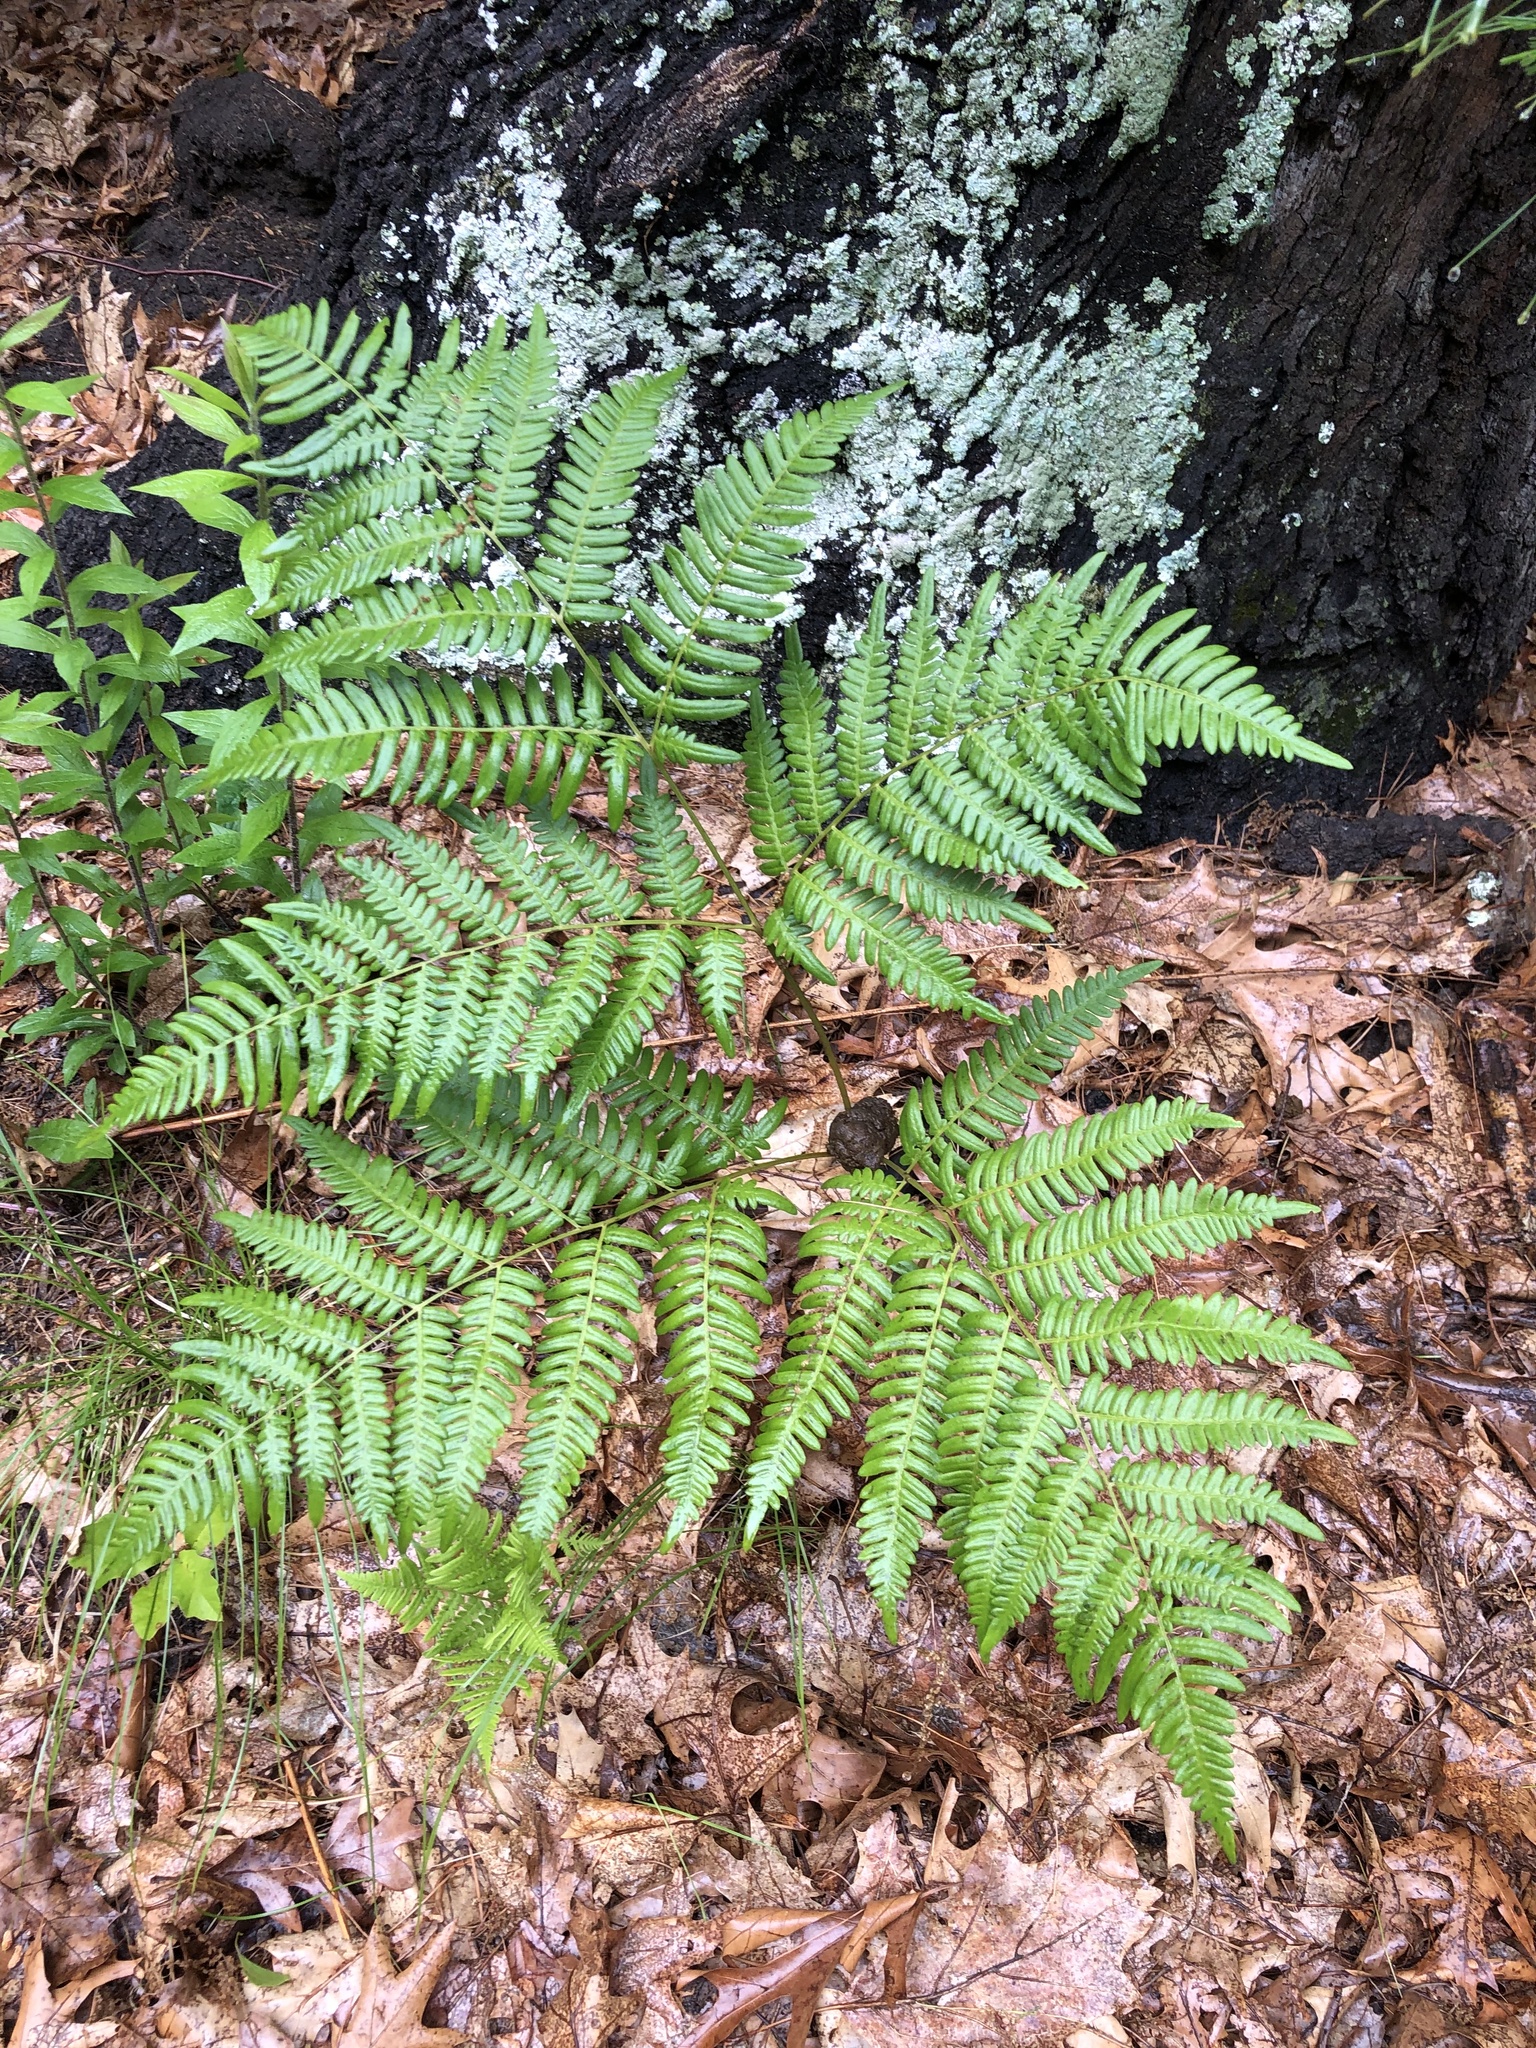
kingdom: Plantae
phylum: Tracheophyta
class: Polypodiopsida
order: Polypodiales
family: Dennstaedtiaceae
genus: Pteridium
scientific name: Pteridium aquilinum
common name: Bracken
